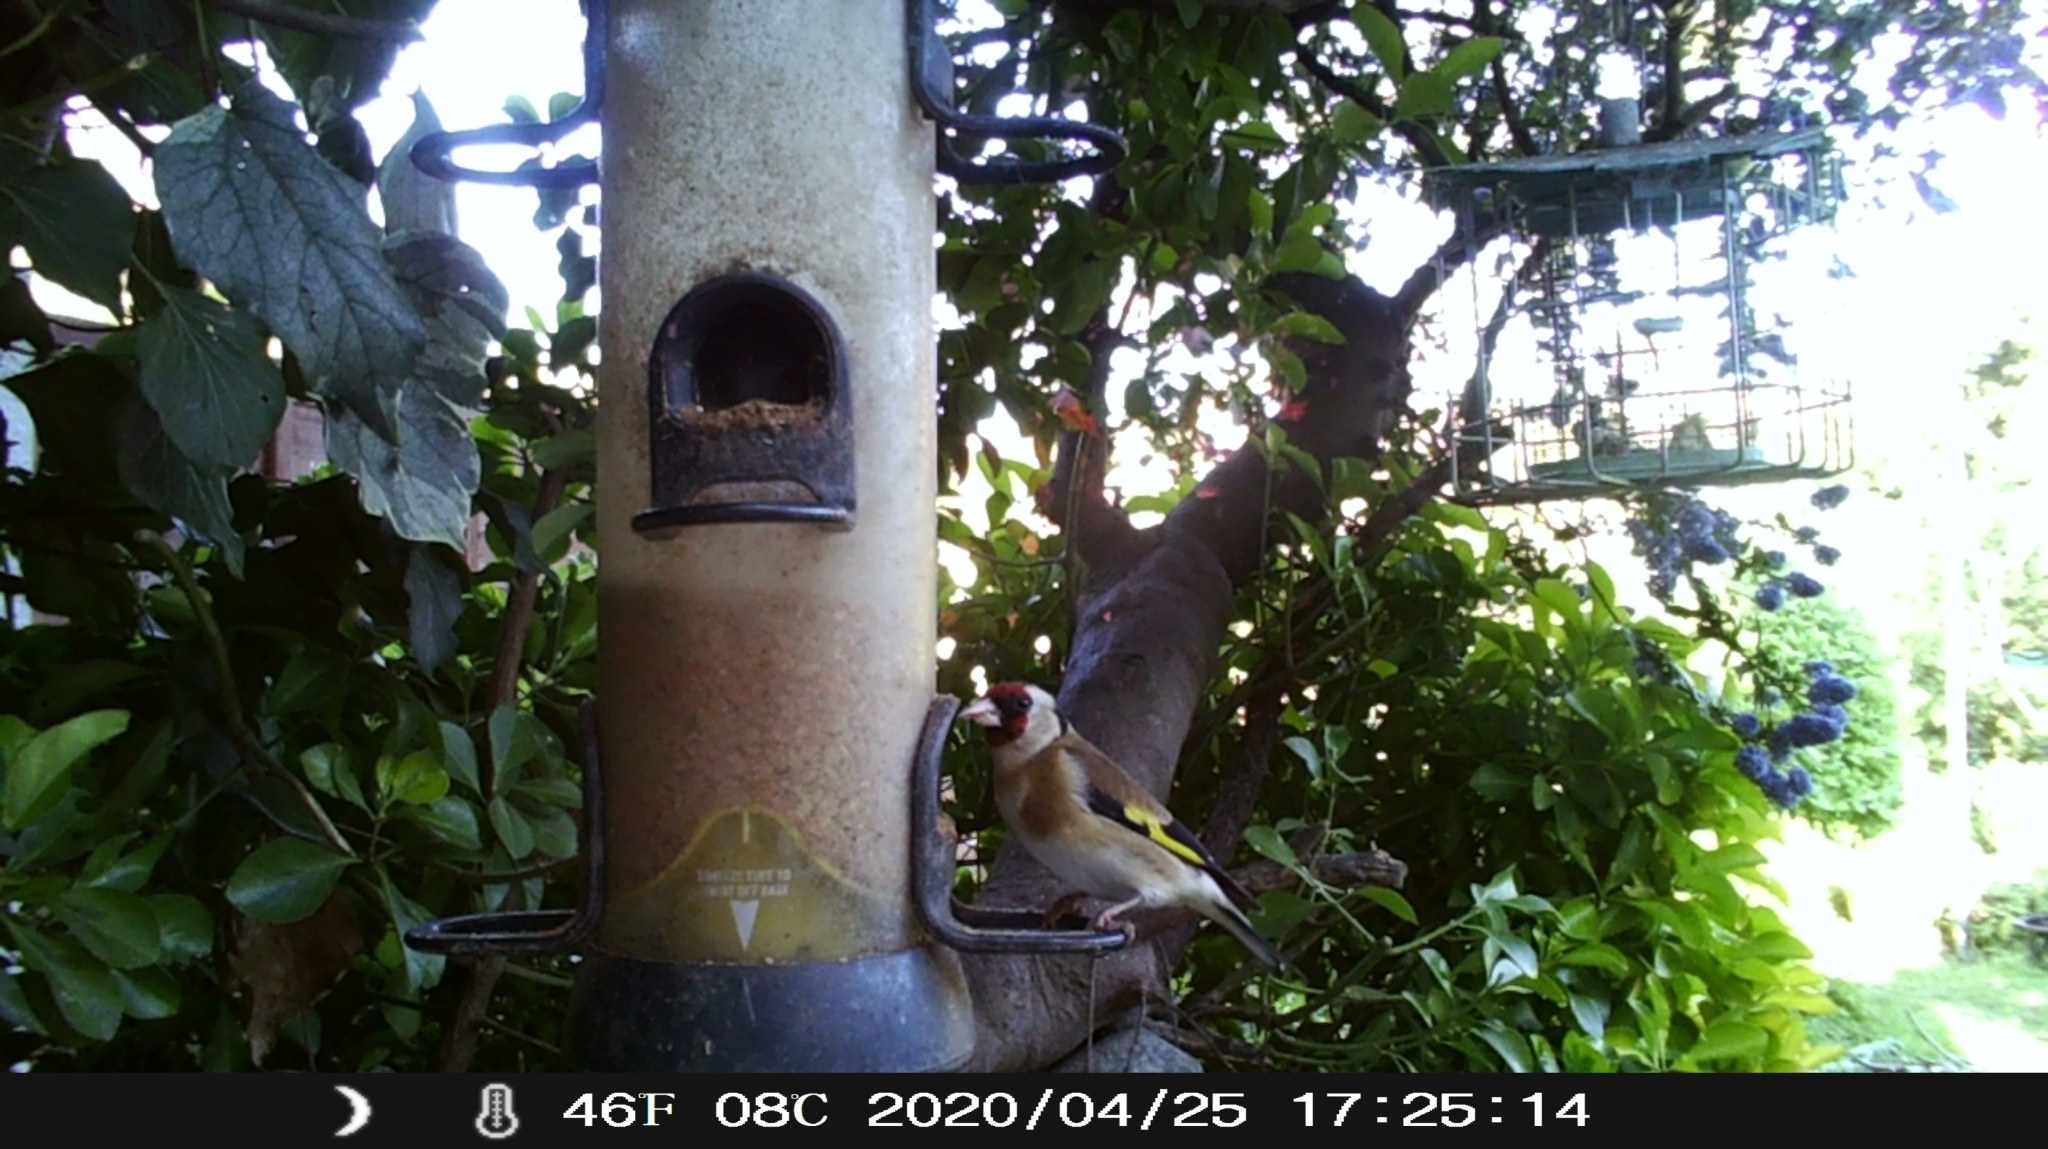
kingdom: Animalia
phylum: Chordata
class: Aves
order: Passeriformes
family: Fringillidae
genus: Carduelis
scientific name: Carduelis carduelis
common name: European goldfinch
